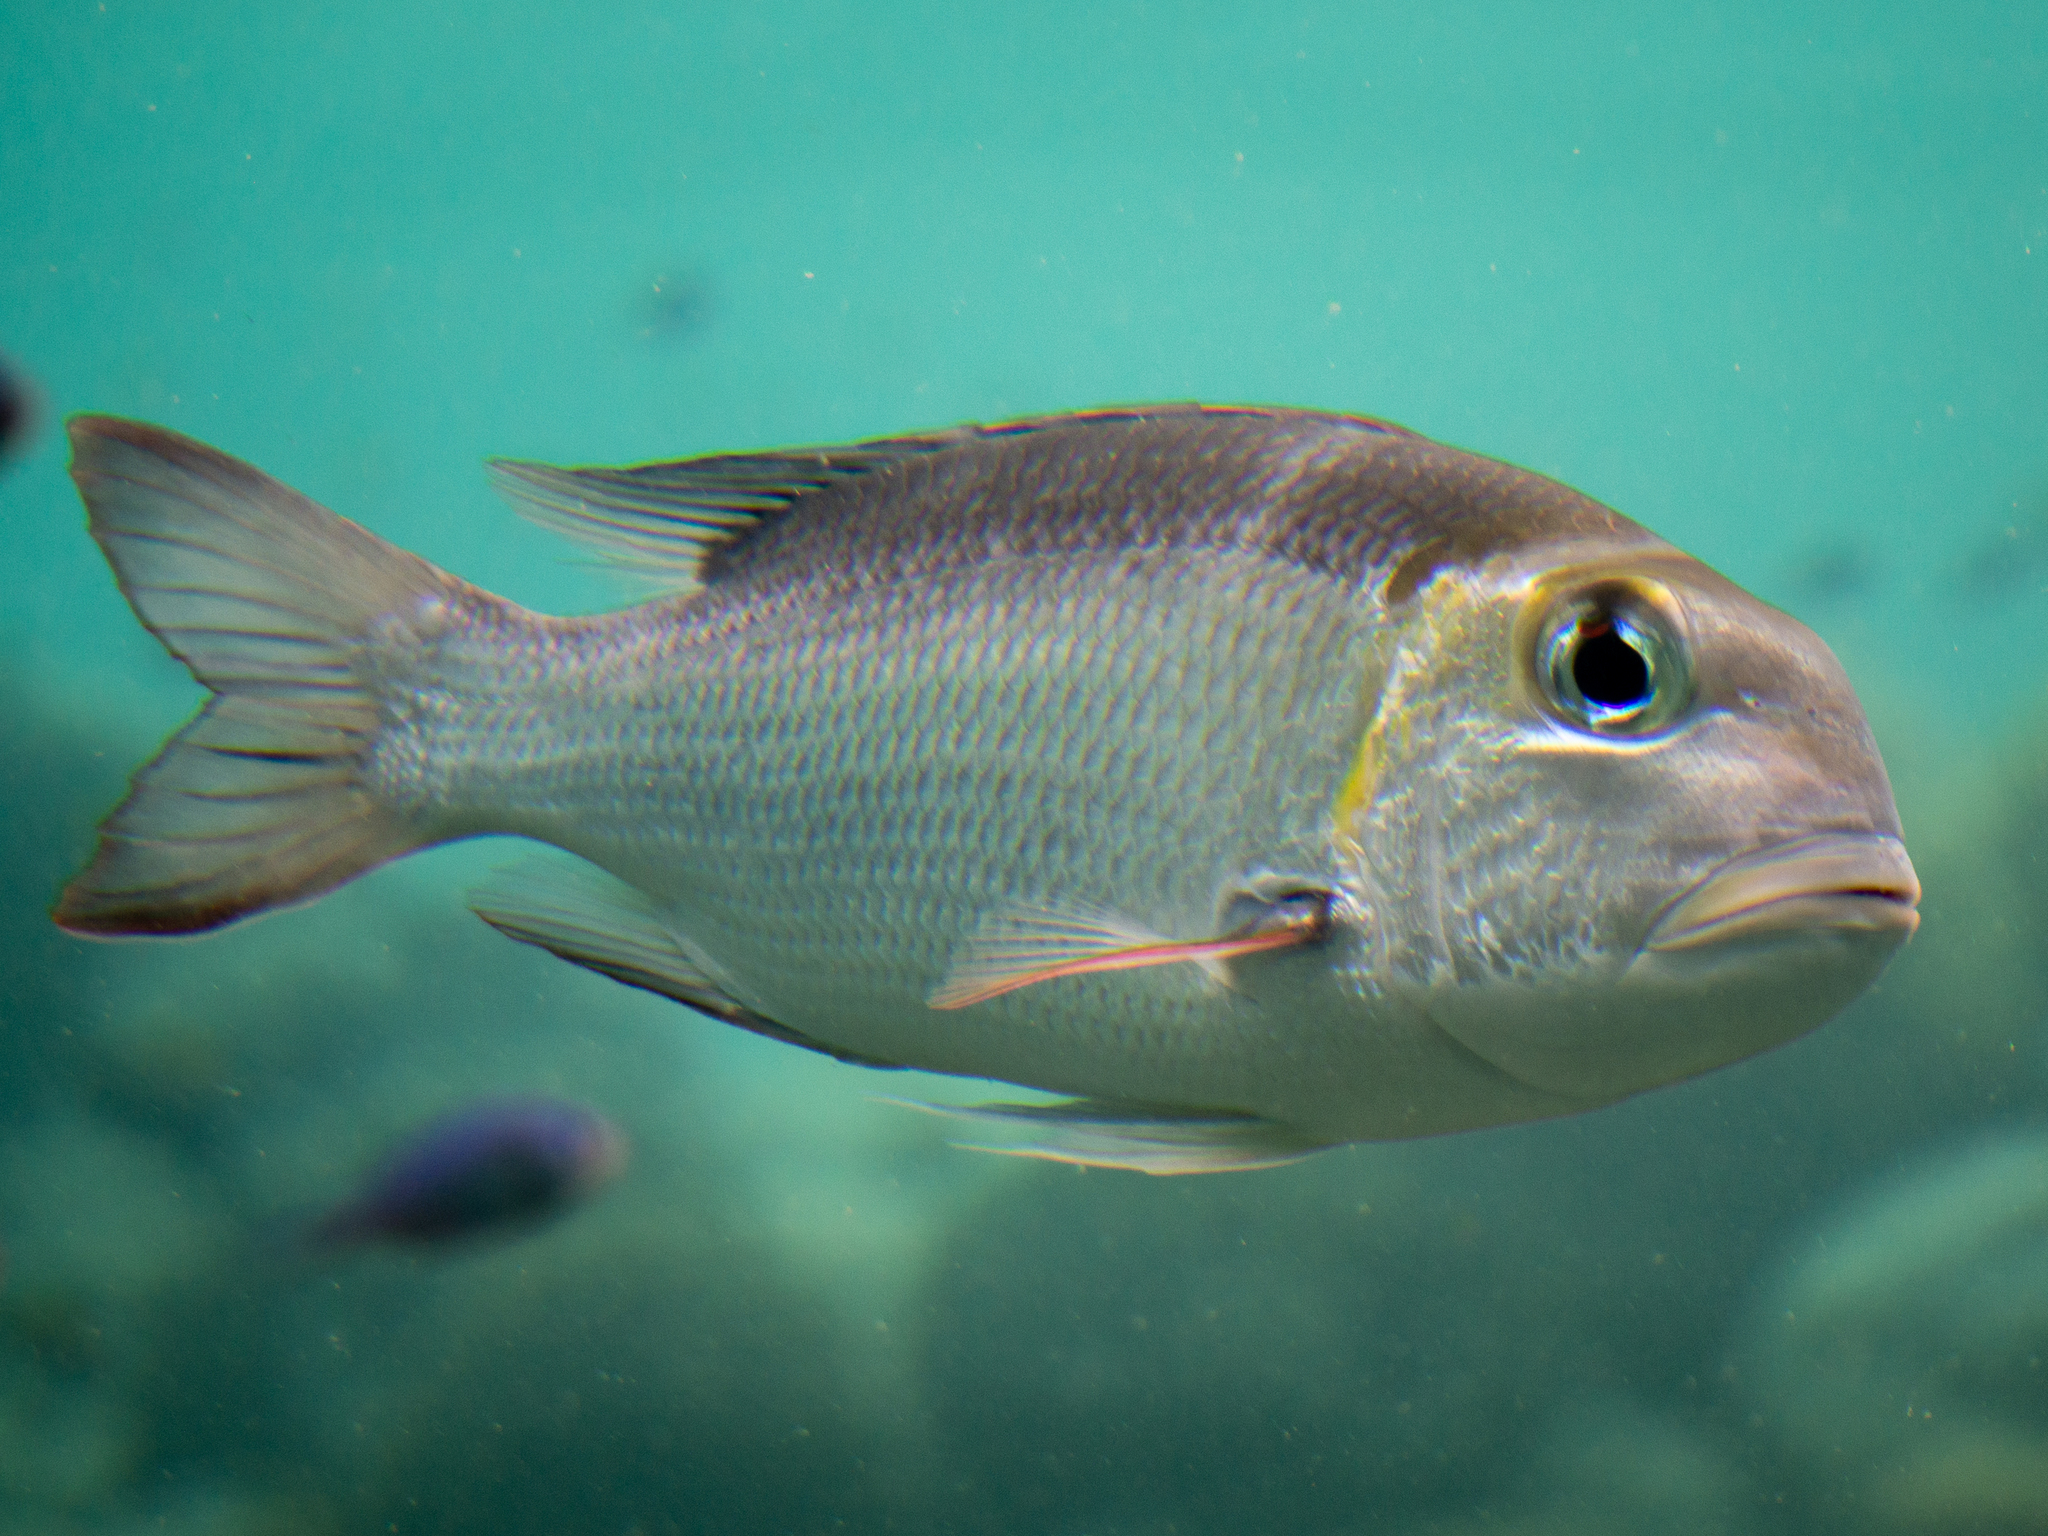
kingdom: Animalia
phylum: Chordata
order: Perciformes
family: Lethrinidae
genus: Monotaxis
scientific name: Monotaxis grandoculis
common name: Bigeye emperor
